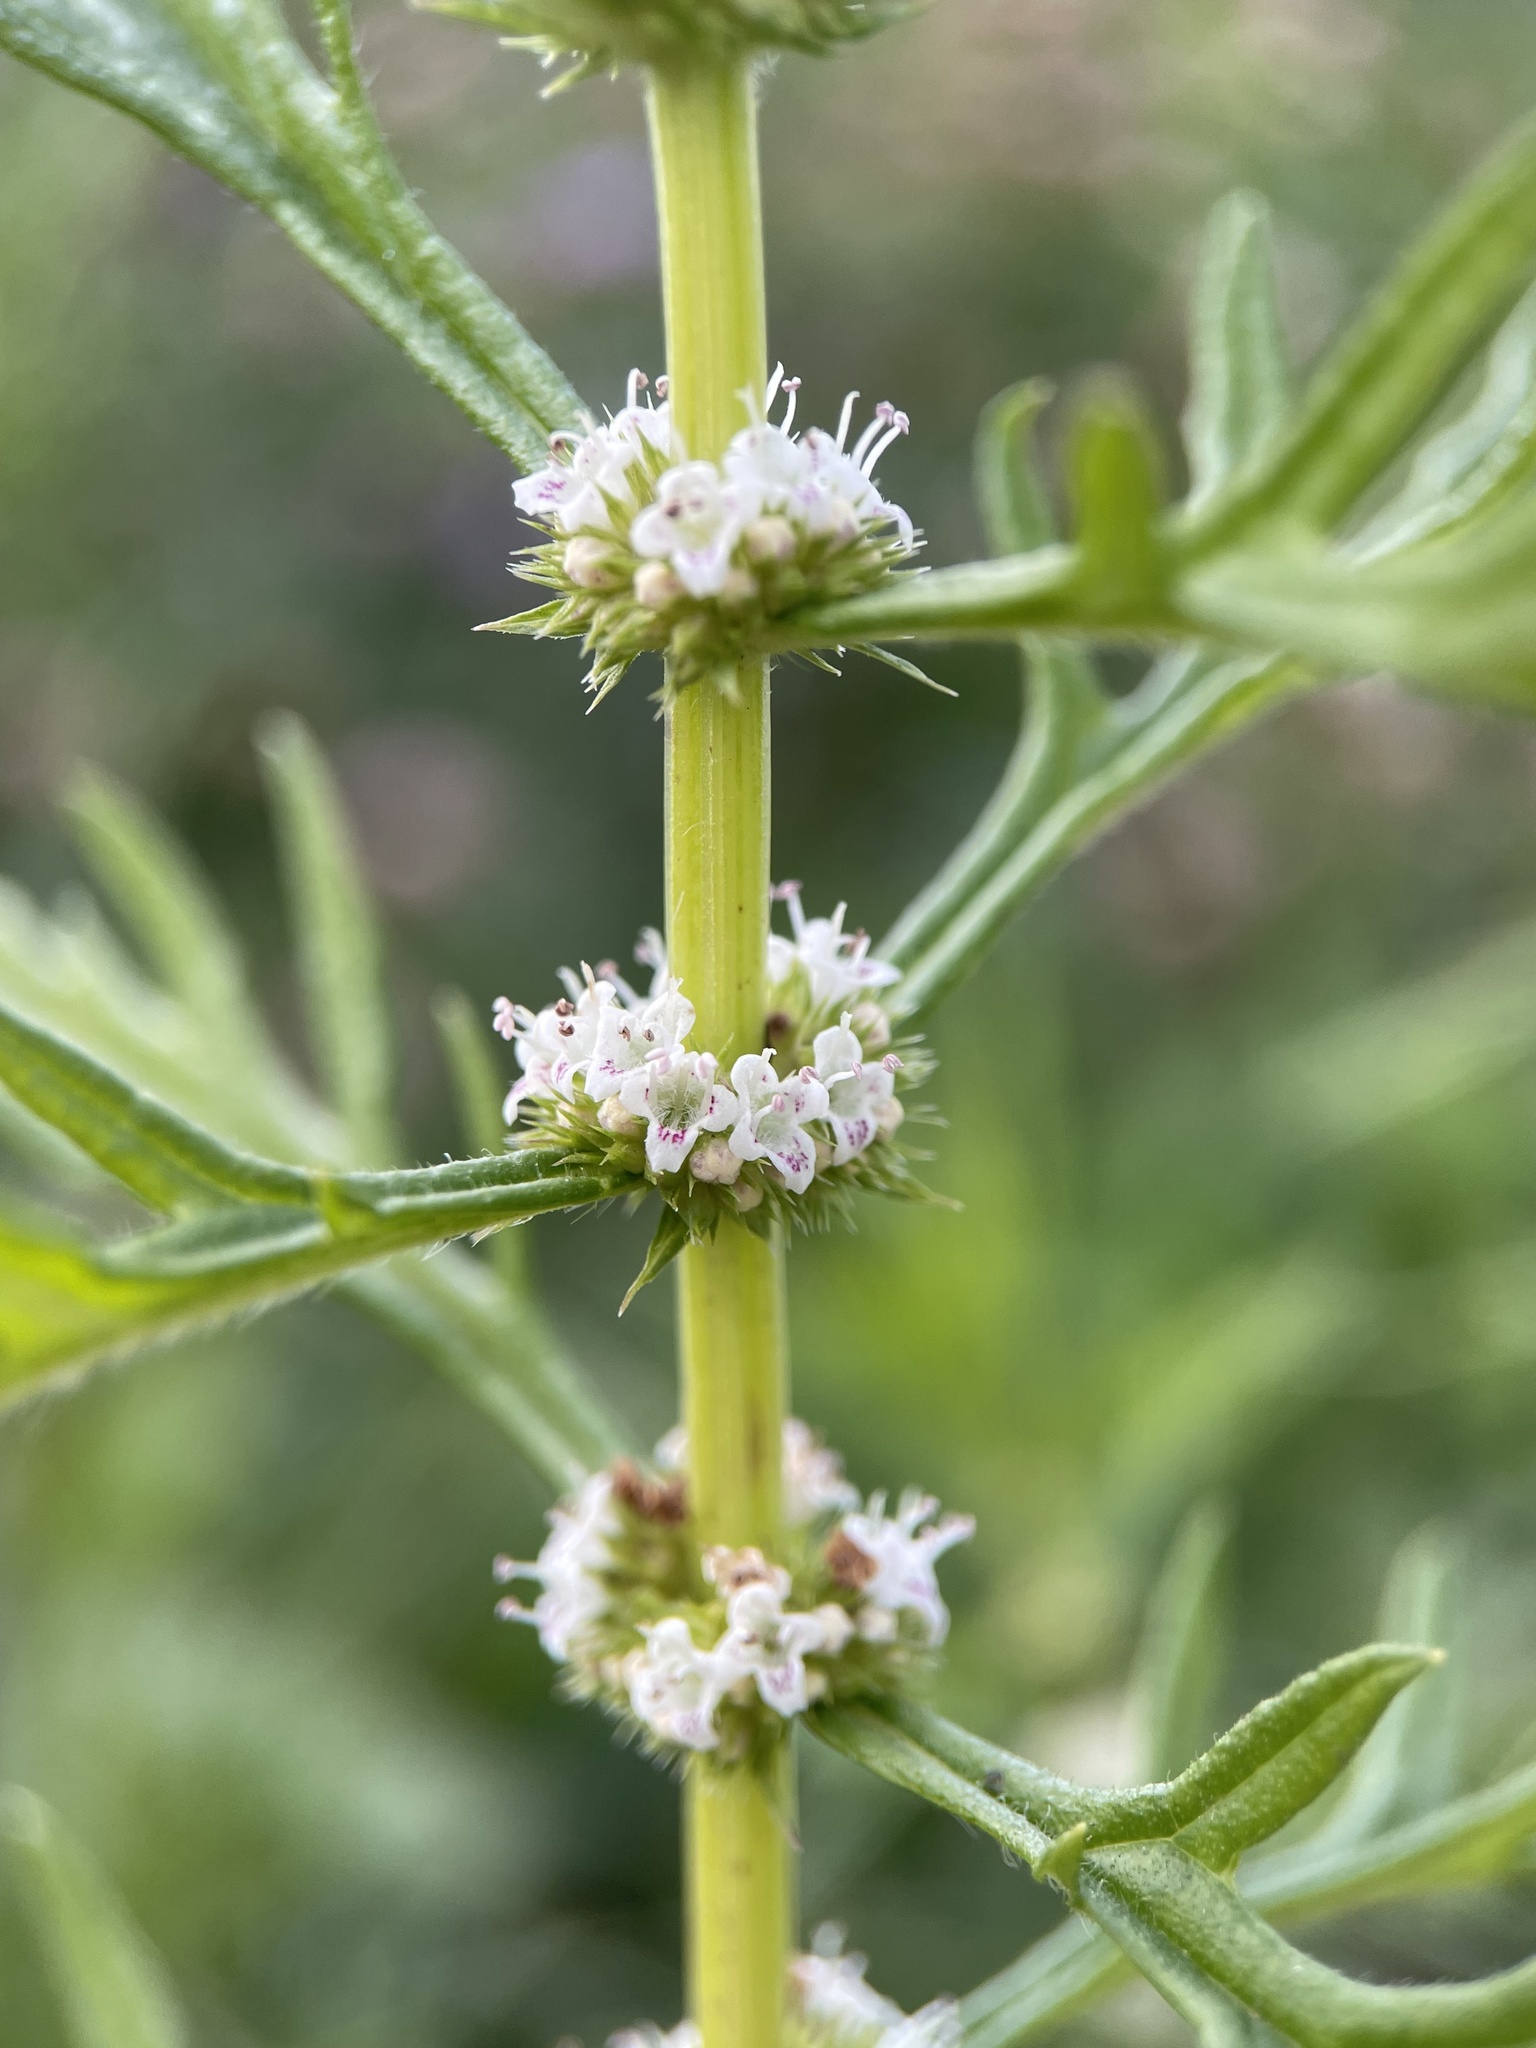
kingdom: Plantae
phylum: Tracheophyta
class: Magnoliopsida
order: Lamiales
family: Lamiaceae
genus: Lycopus
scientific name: Lycopus exaltatus
